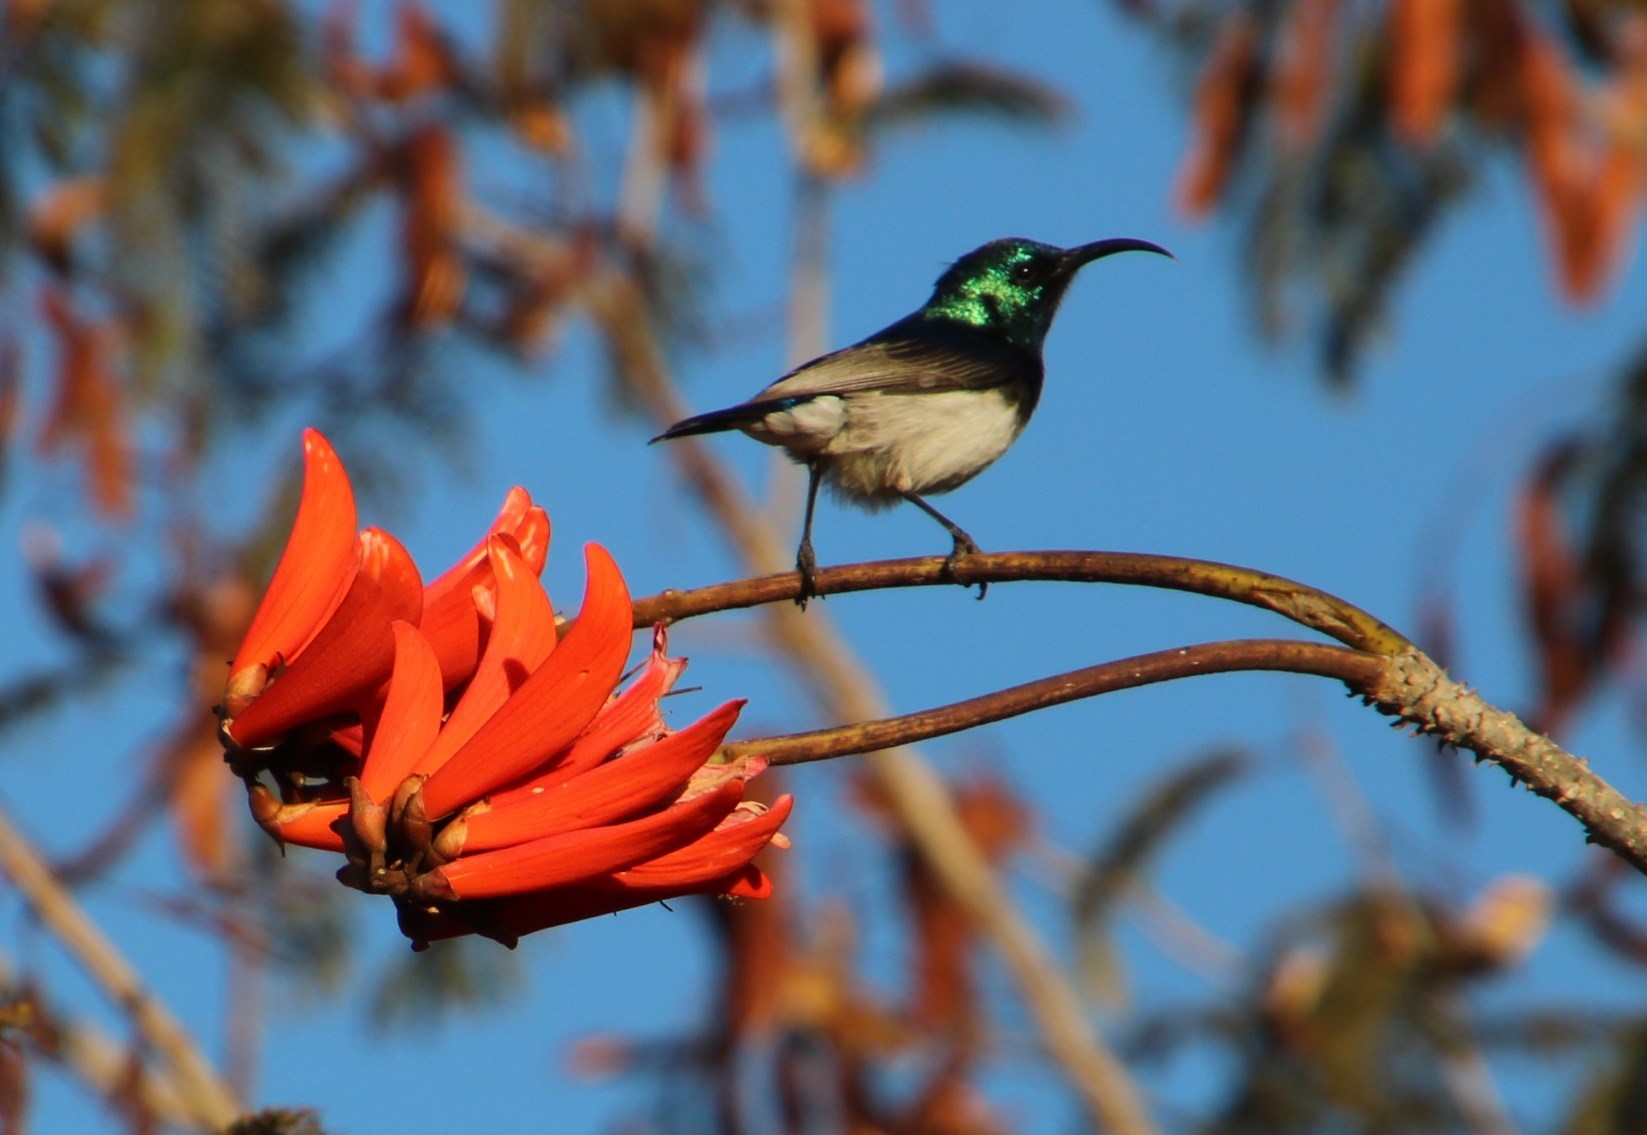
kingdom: Plantae
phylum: Tracheophyta
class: Magnoliopsida
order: Fabales
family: Fabaceae
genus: Erythrina
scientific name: Erythrina lysistemon
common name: Common coral tree
